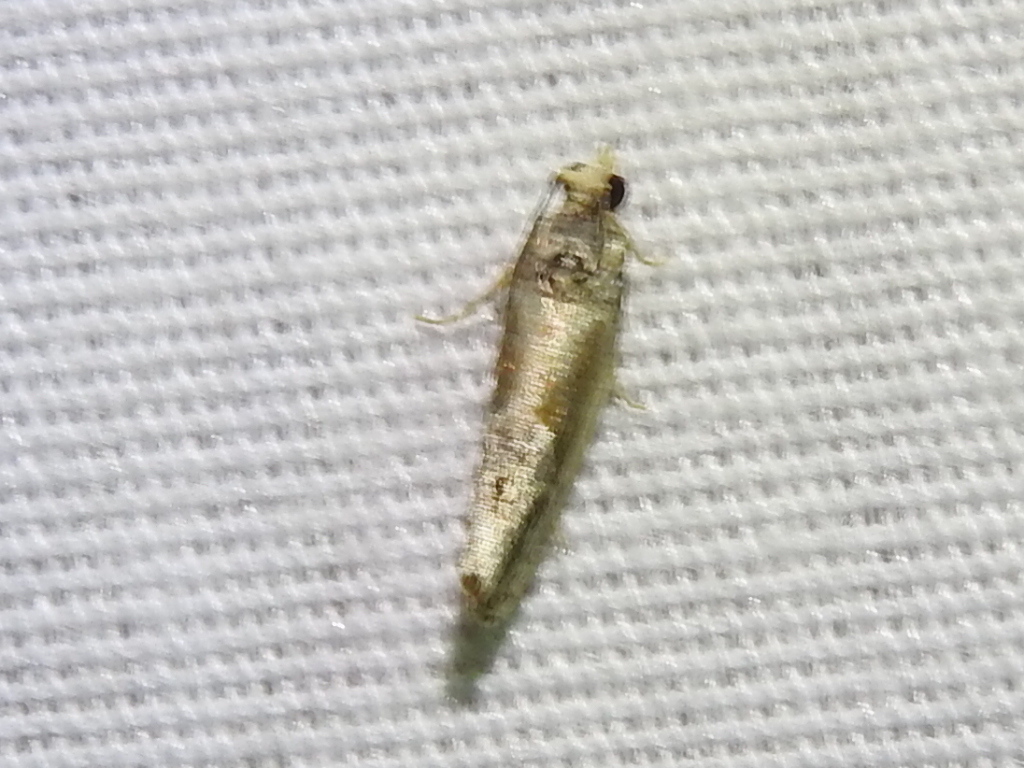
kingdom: Animalia
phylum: Arthropoda
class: Insecta
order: Lepidoptera
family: Tortricidae
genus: Eumarozia
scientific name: Eumarozia malachitana
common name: Sculptured moth
